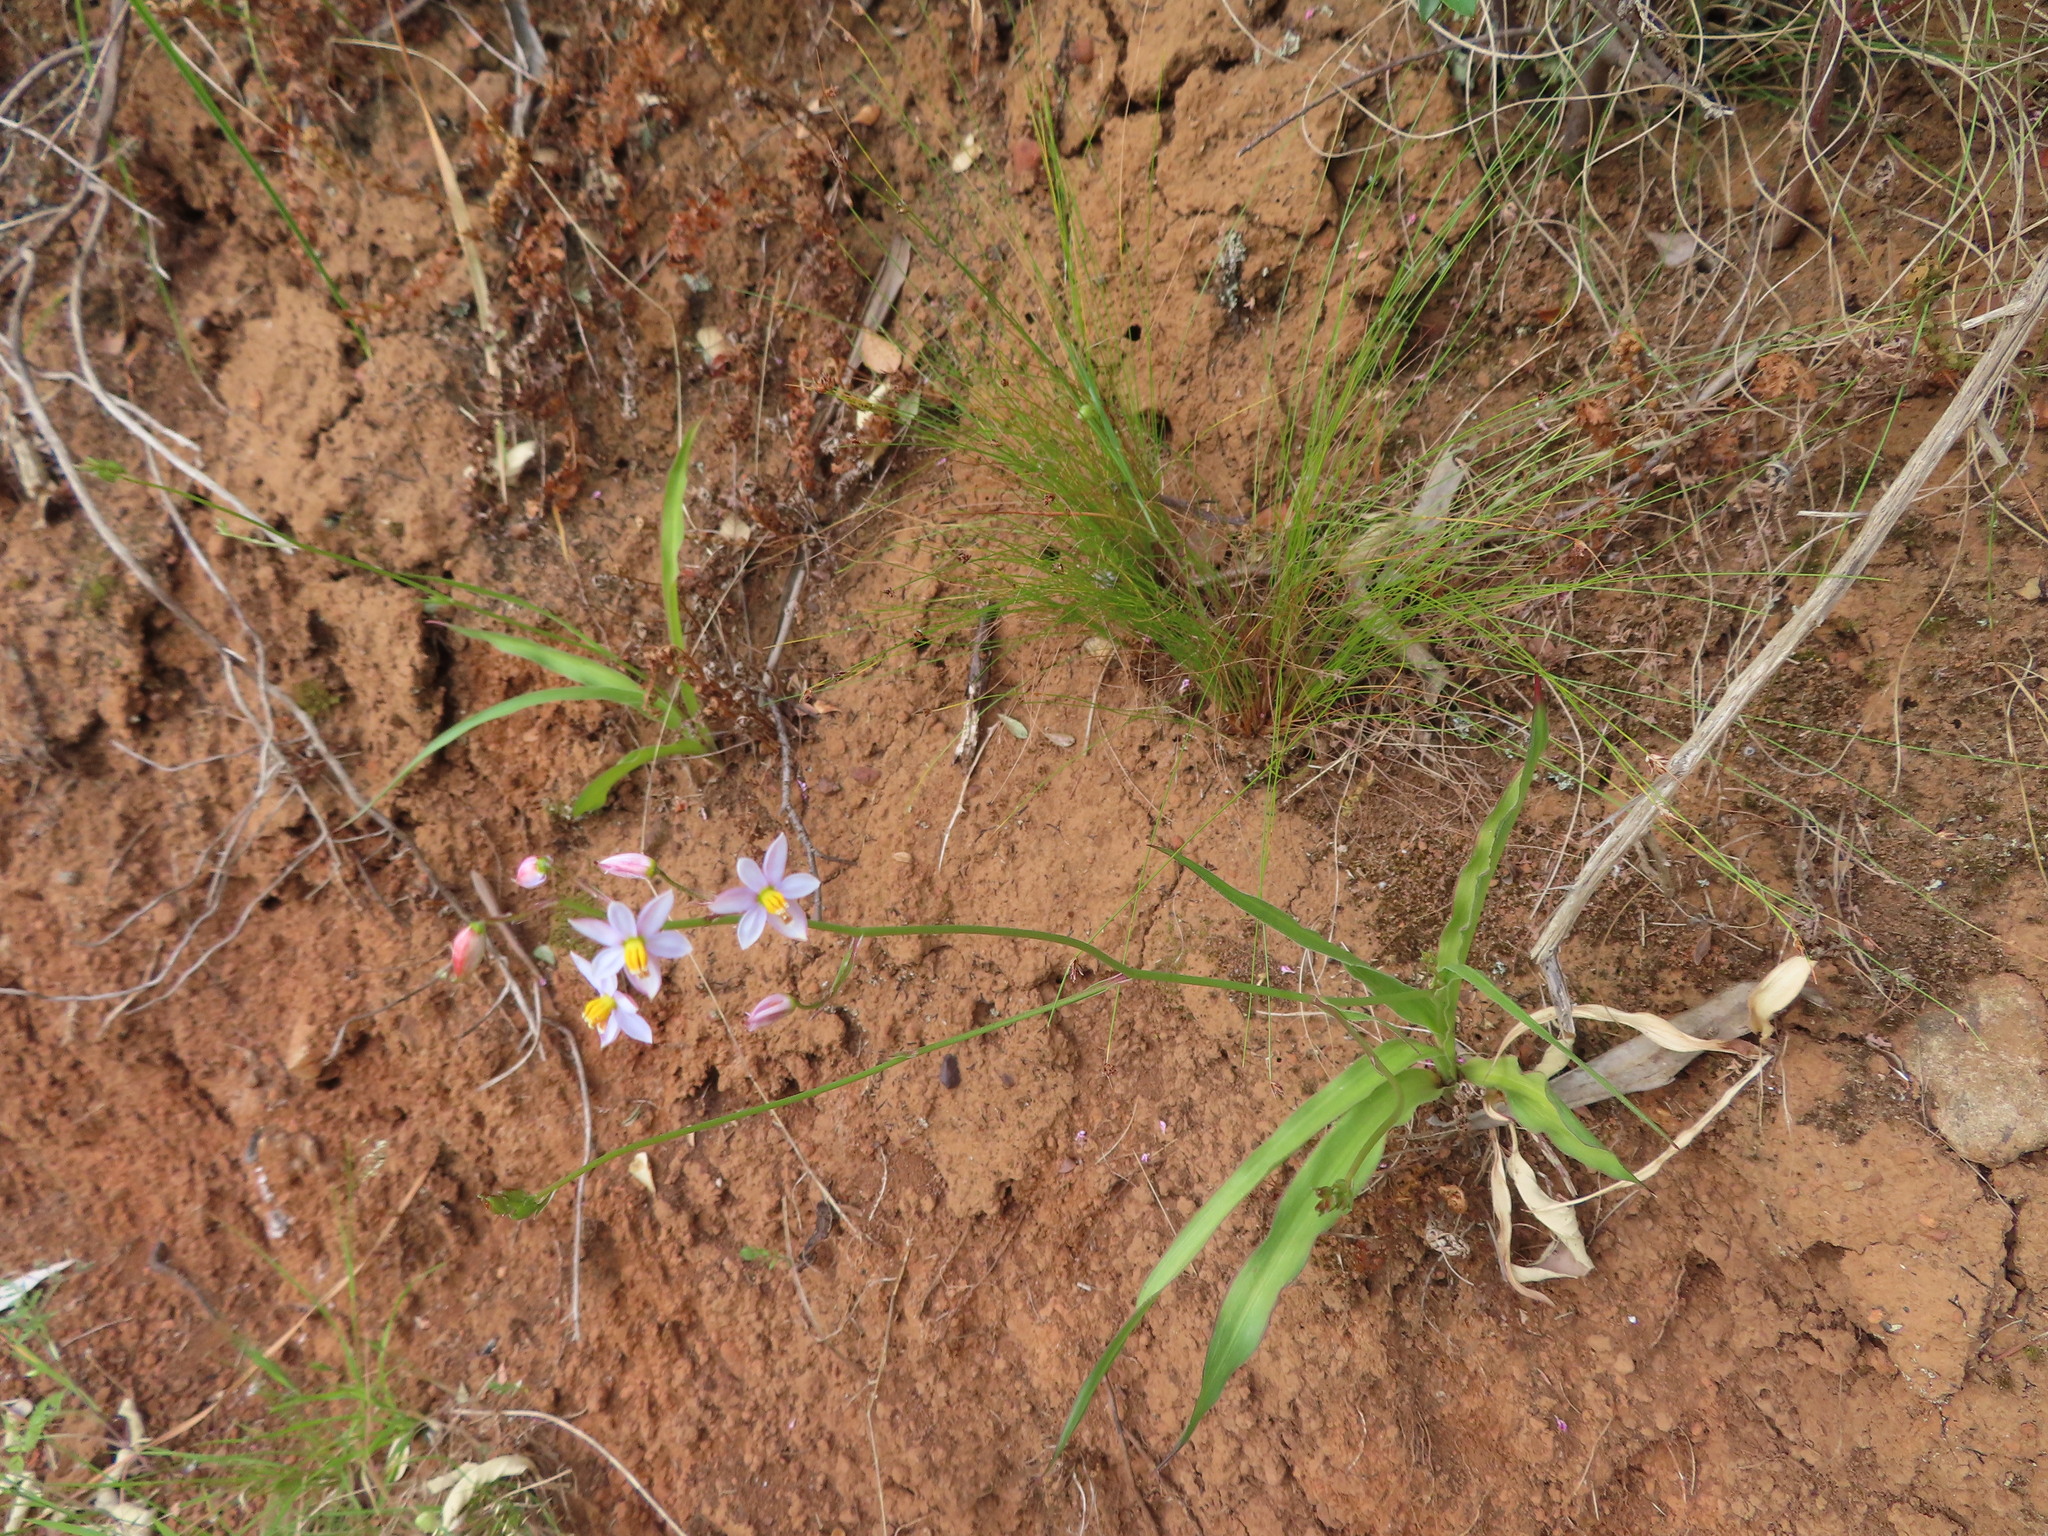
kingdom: Plantae
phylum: Tracheophyta
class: Liliopsida
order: Asparagales
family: Tecophilaeaceae
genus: Cyanella
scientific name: Cyanella hyacinthoides
